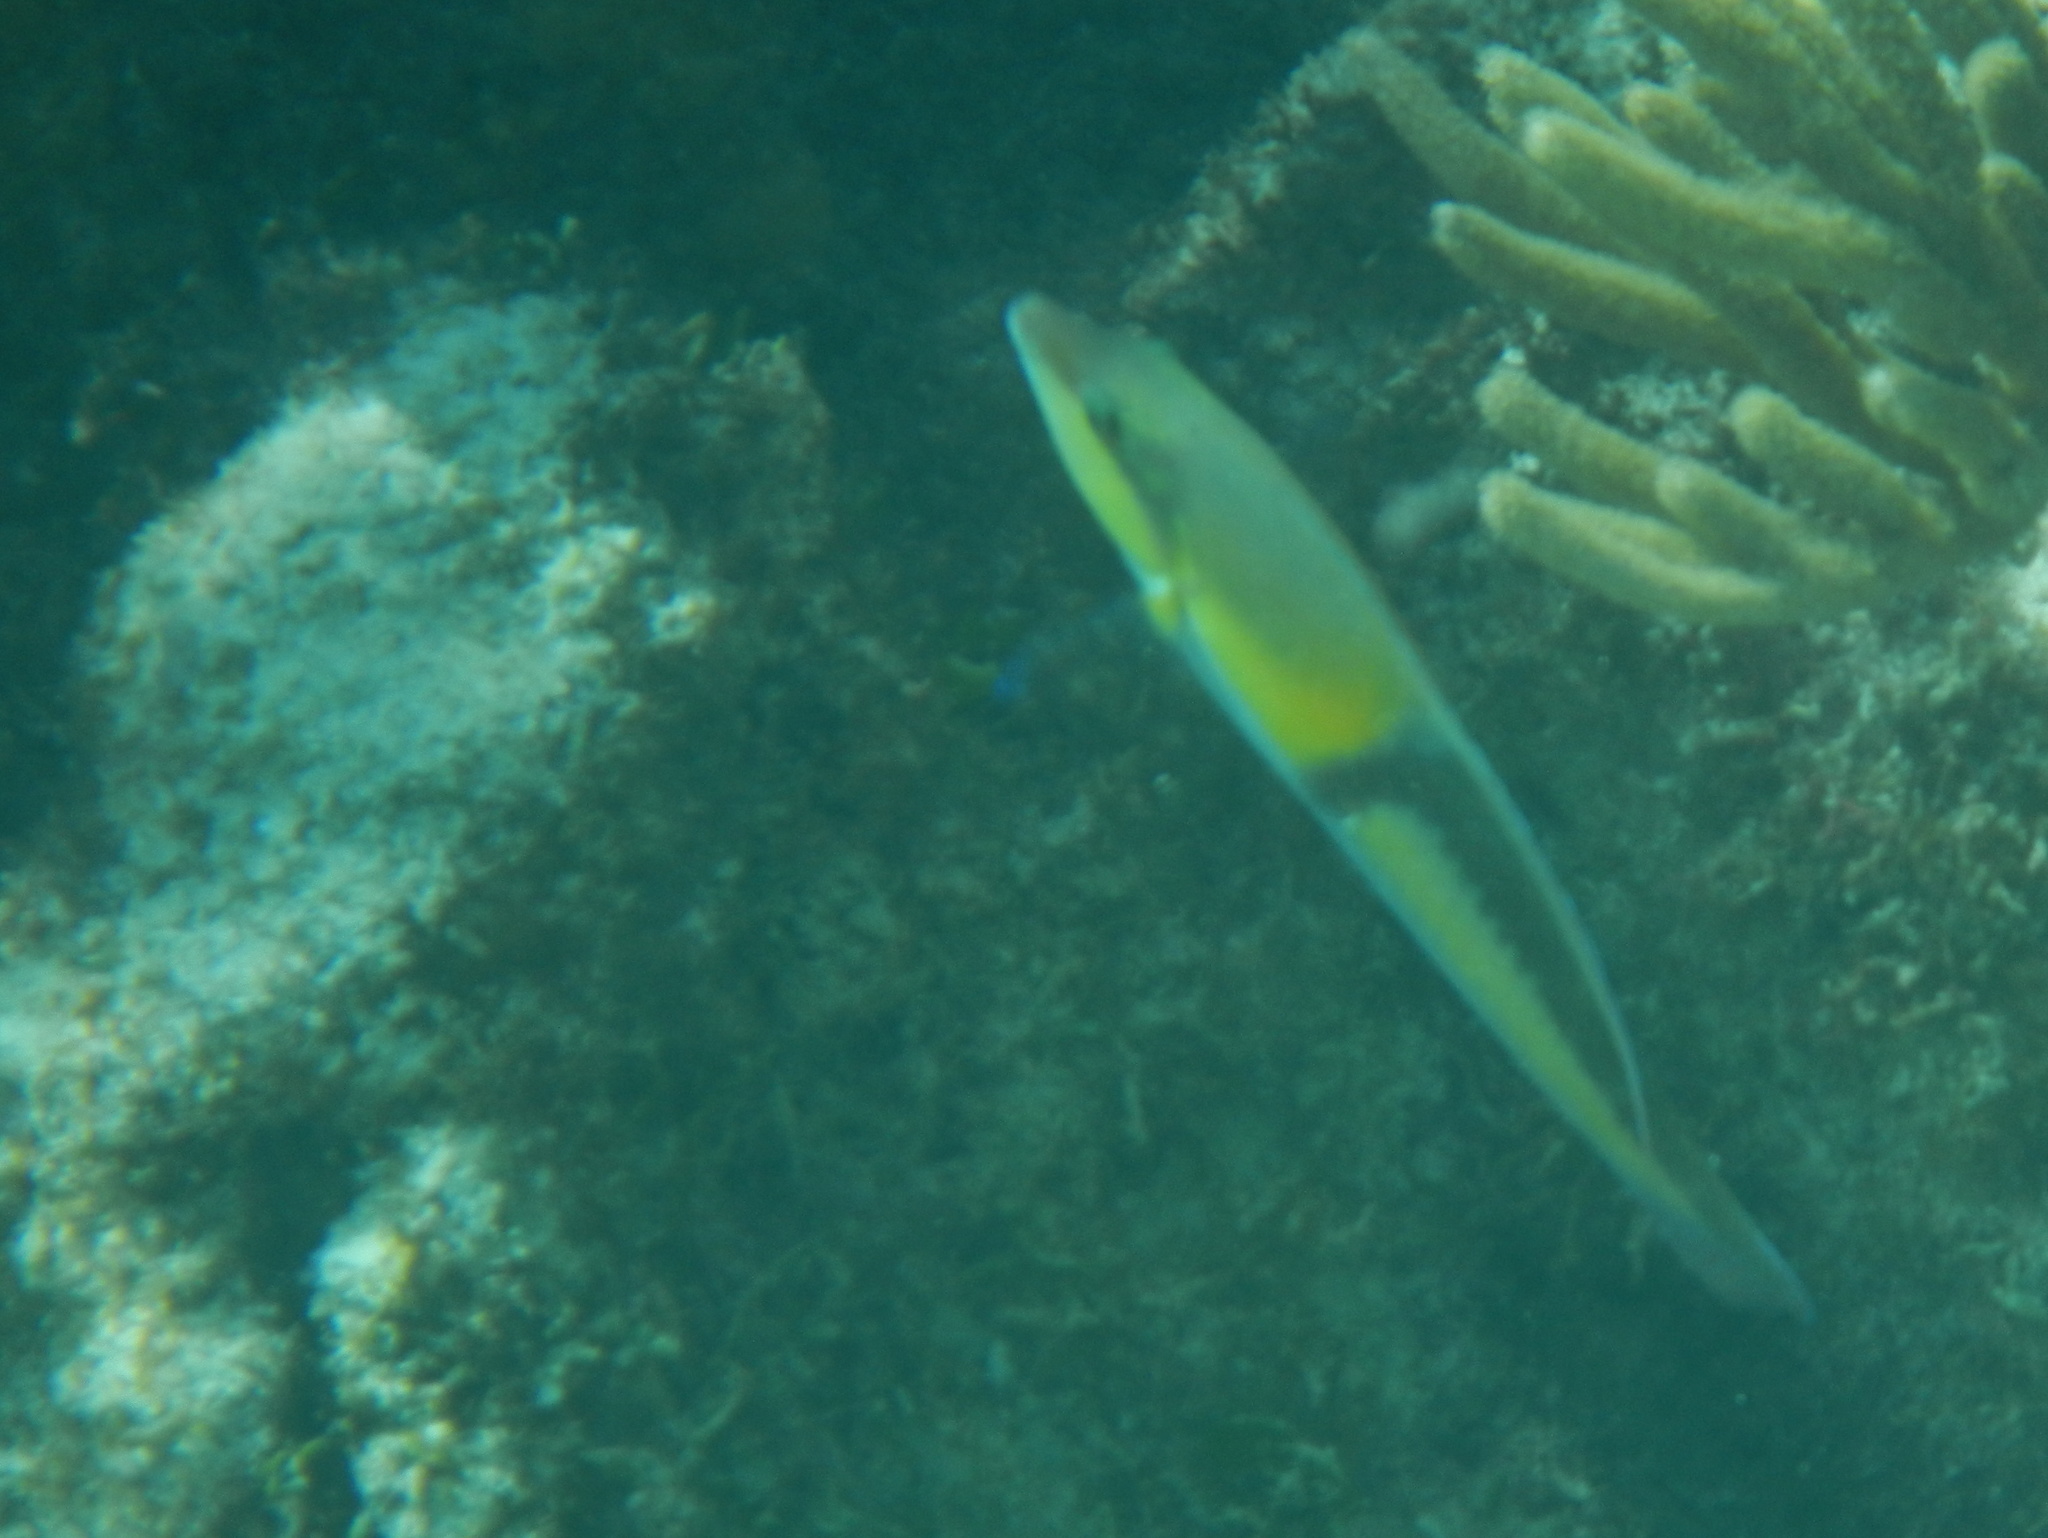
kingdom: Animalia
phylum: Chordata
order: Perciformes
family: Labridae
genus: Halichoeres
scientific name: Halichoeres garnoti
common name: Yellowhead wrasse
